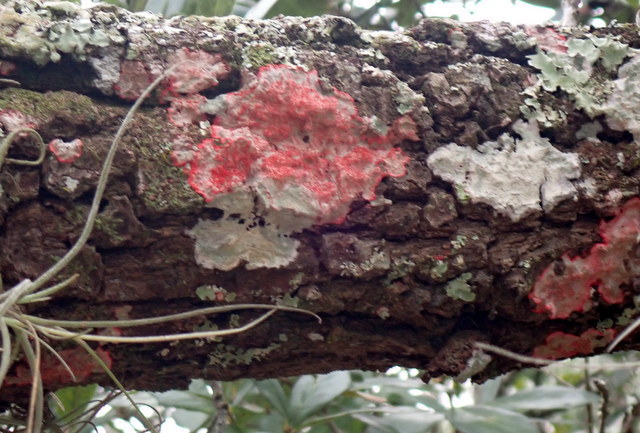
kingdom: Fungi
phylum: Ascomycota
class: Arthoniomycetes
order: Arthoniales
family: Arthoniaceae
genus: Herpothallon
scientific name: Herpothallon rubrocinctum
